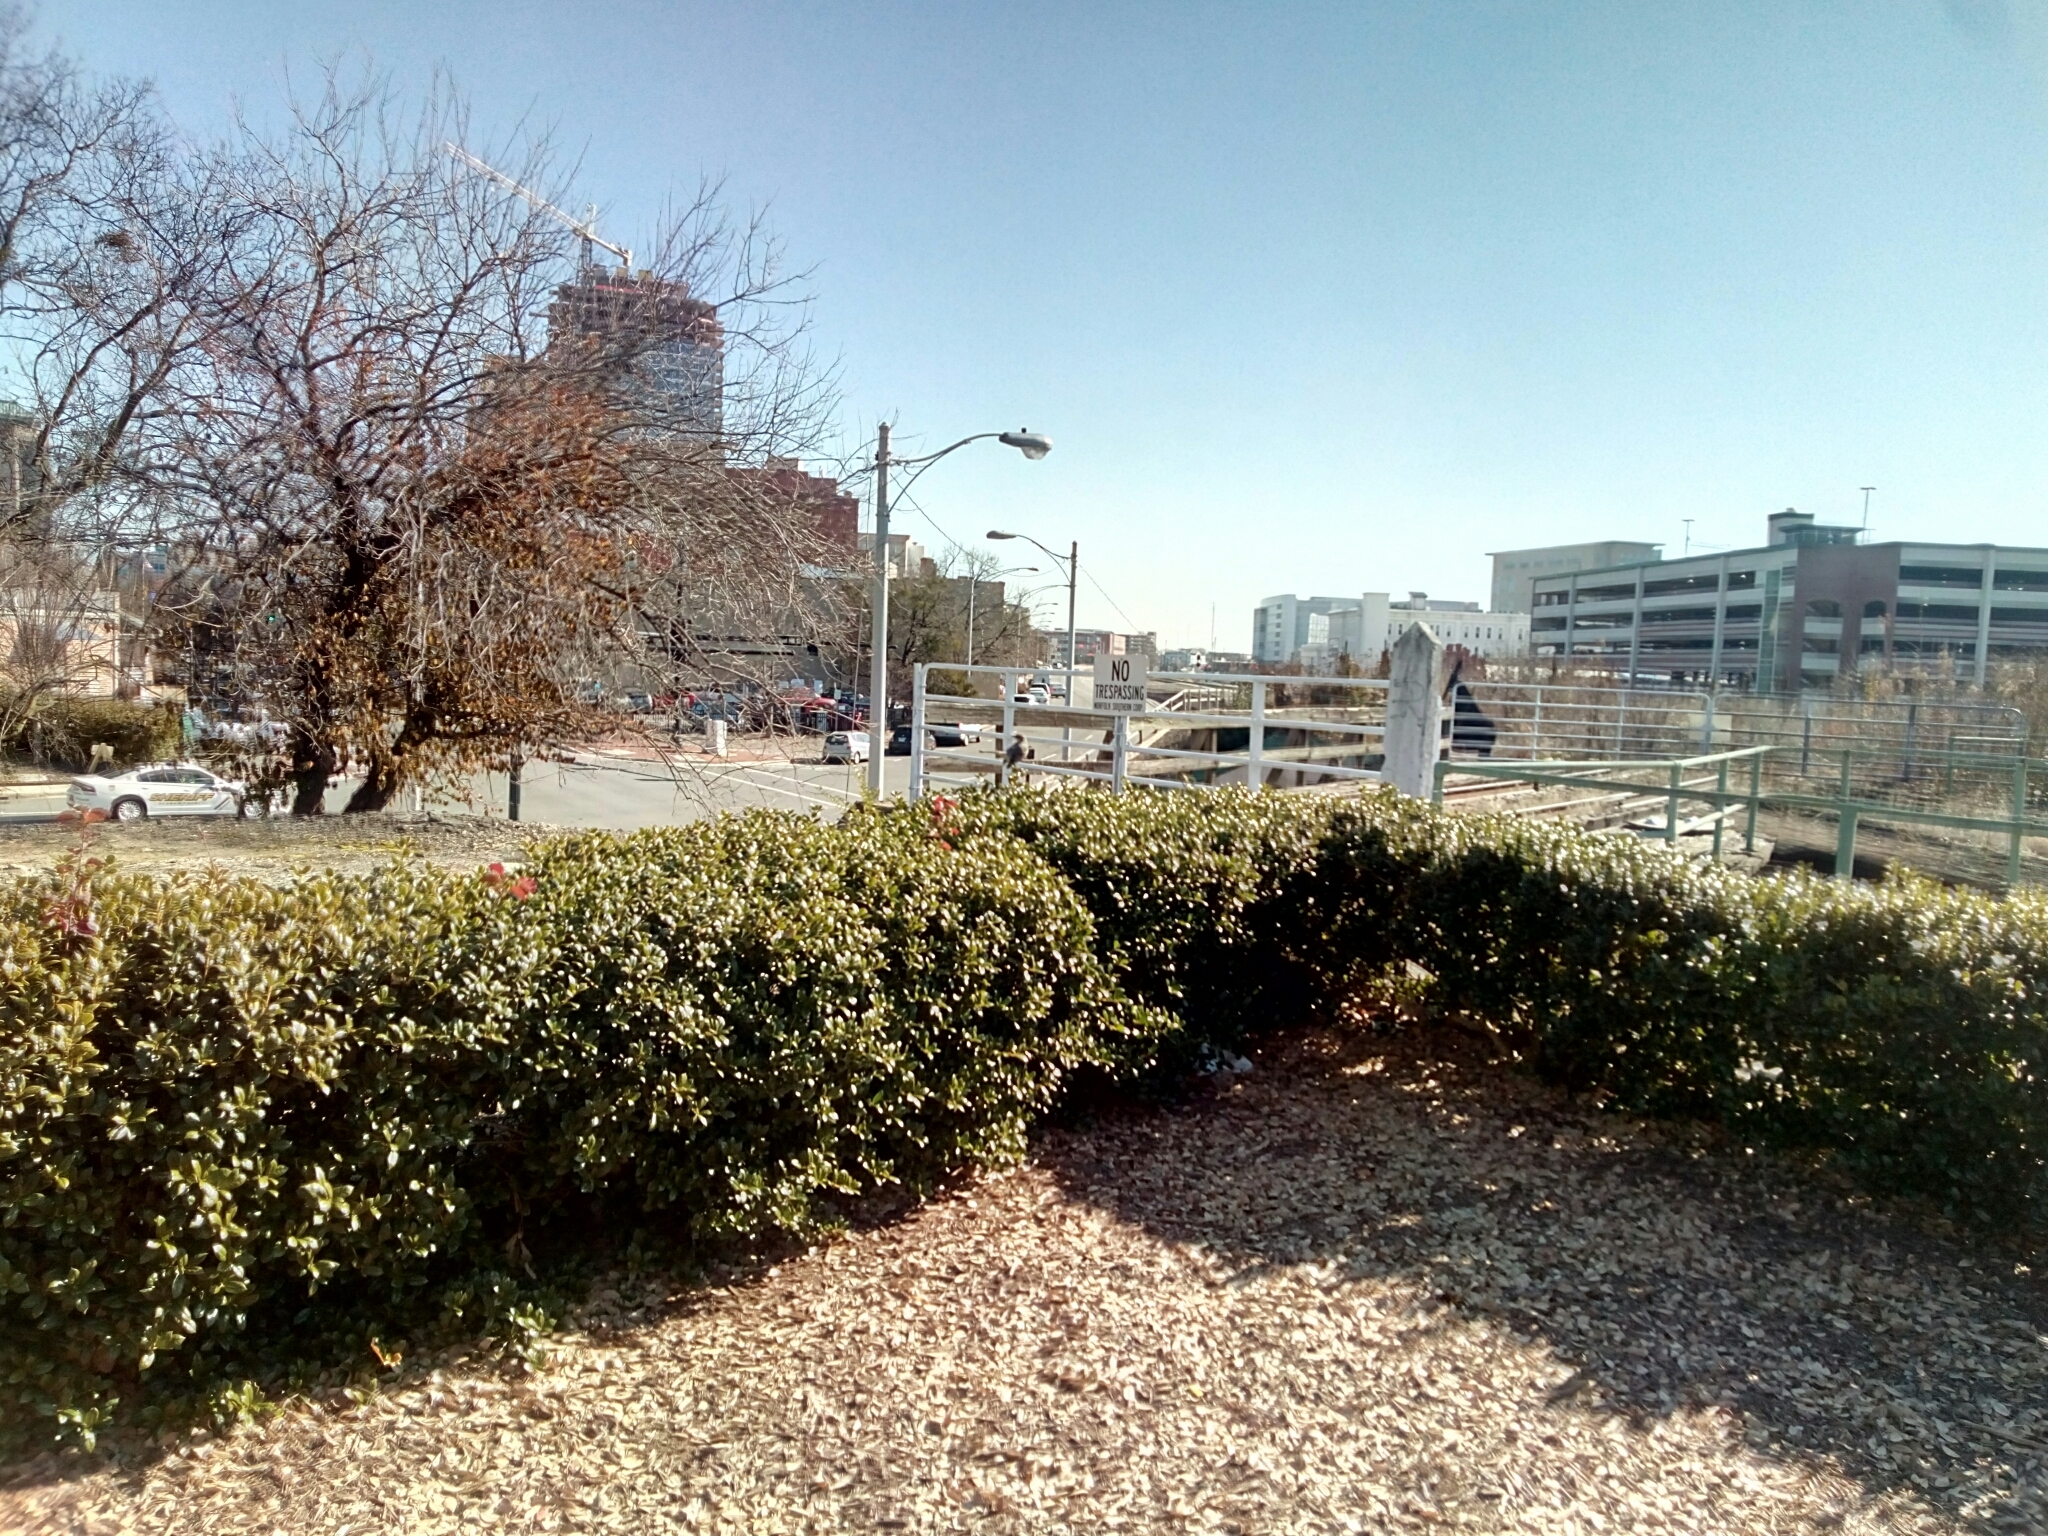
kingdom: Animalia
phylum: Chordata
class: Aves
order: Passeriformes
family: Mimidae
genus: Mimus
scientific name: Mimus polyglottos
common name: Northern mockingbird
